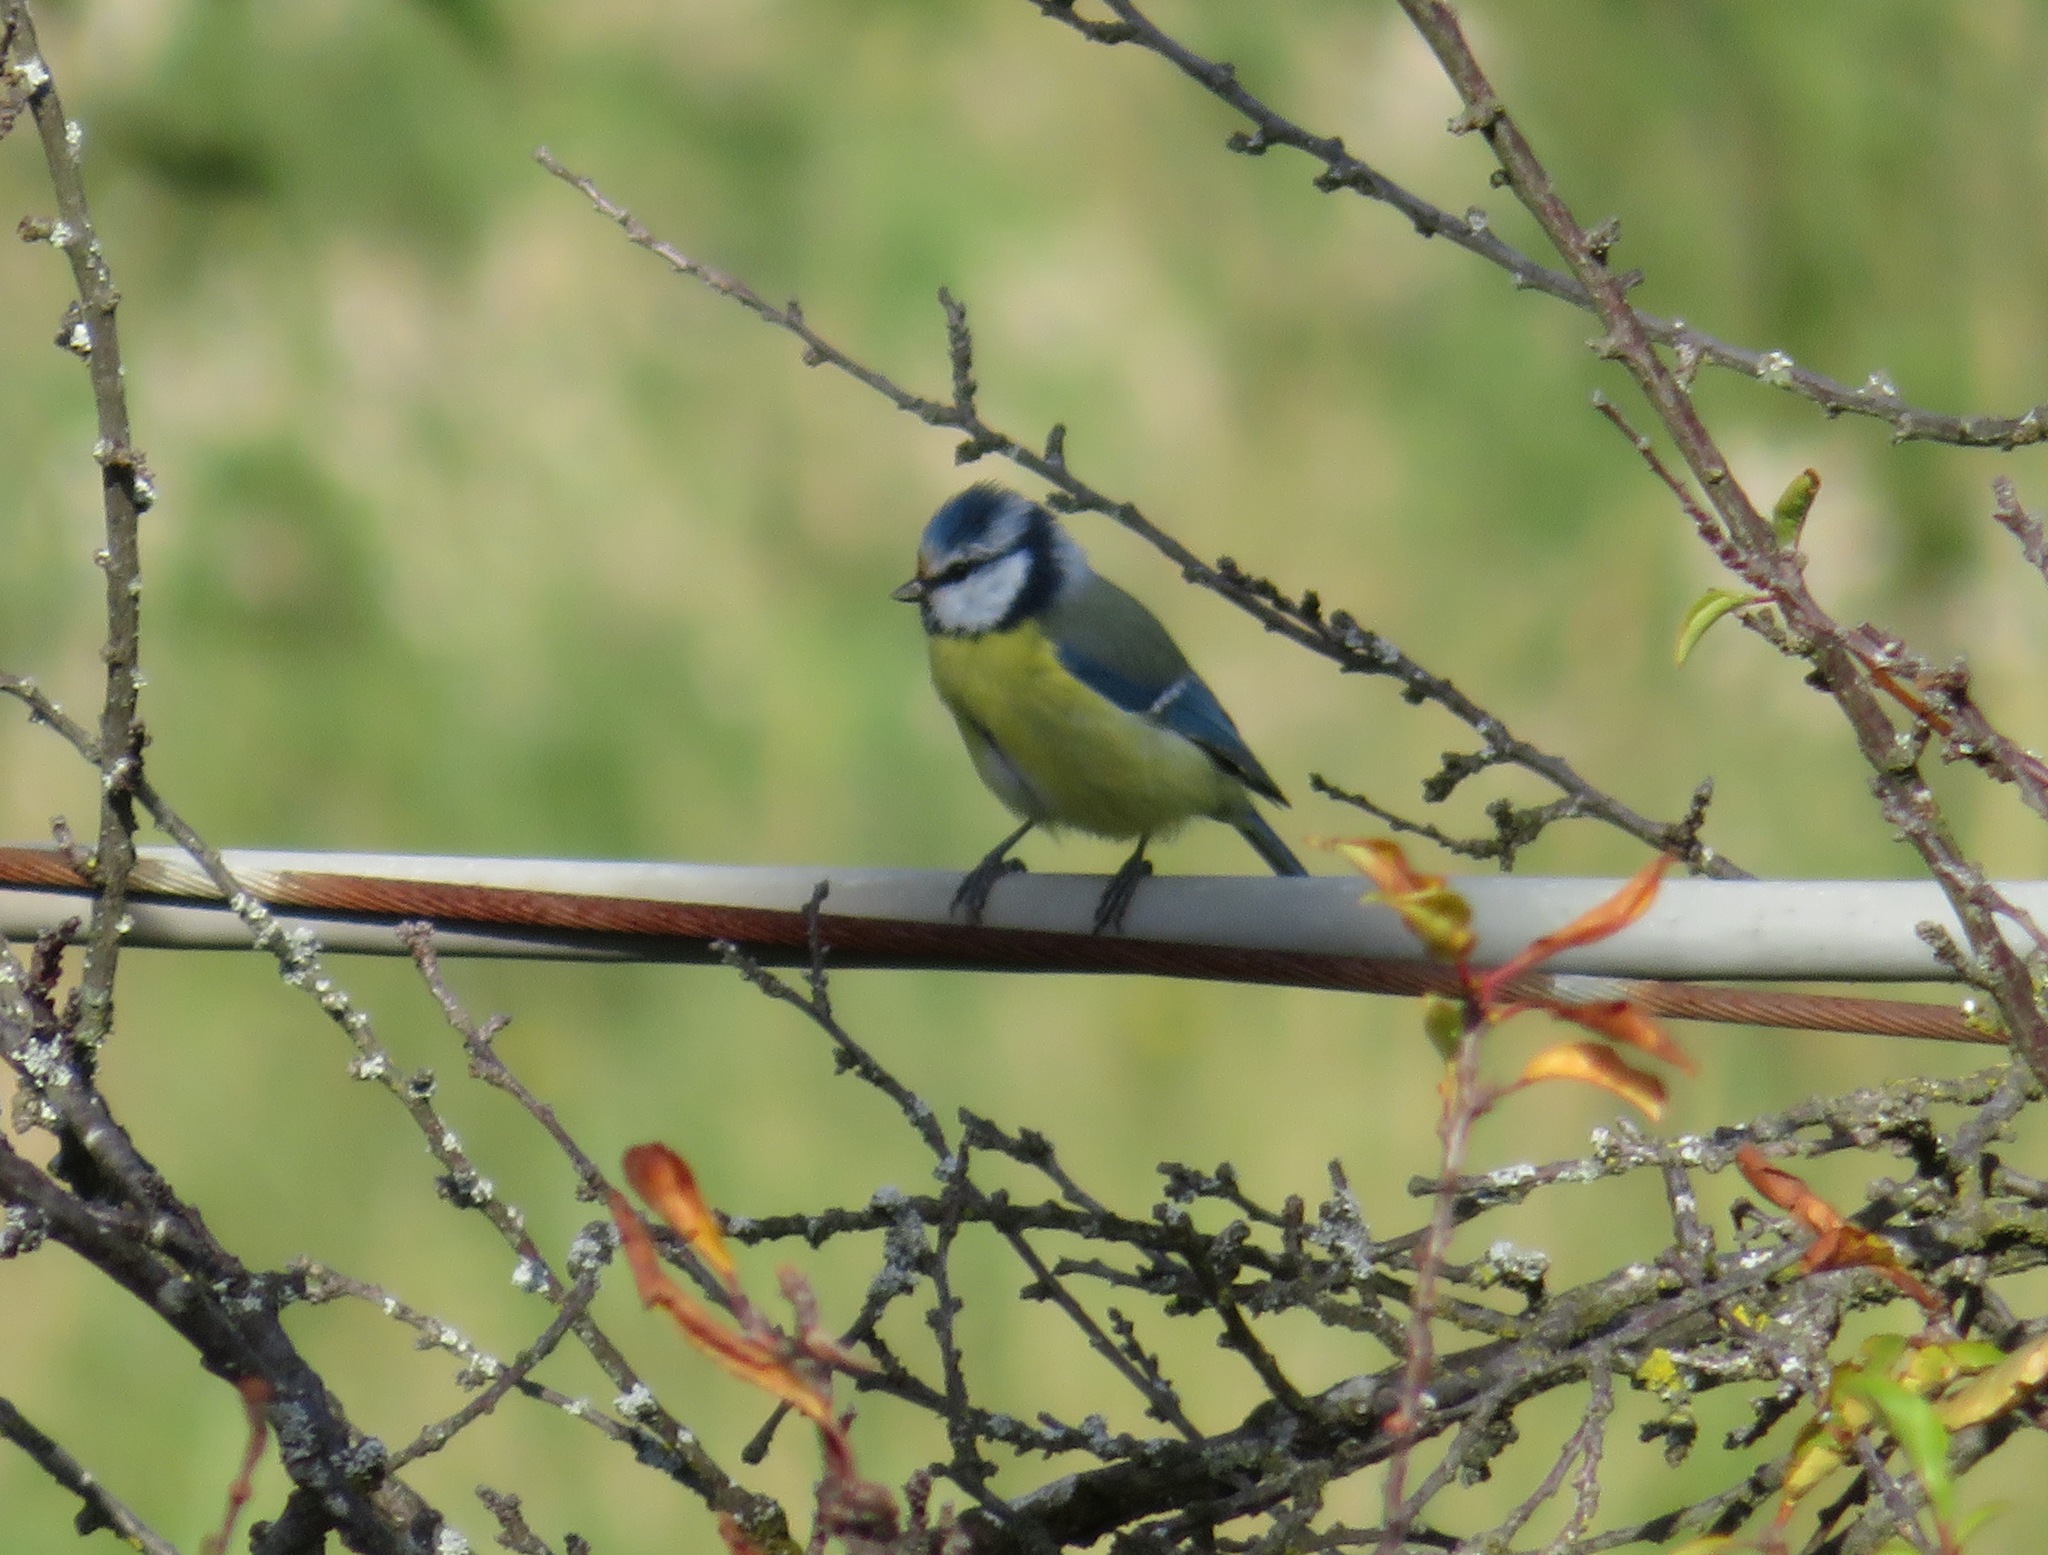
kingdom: Animalia
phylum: Chordata
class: Aves
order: Passeriformes
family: Paridae
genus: Cyanistes
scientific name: Cyanistes caeruleus
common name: Eurasian blue tit
